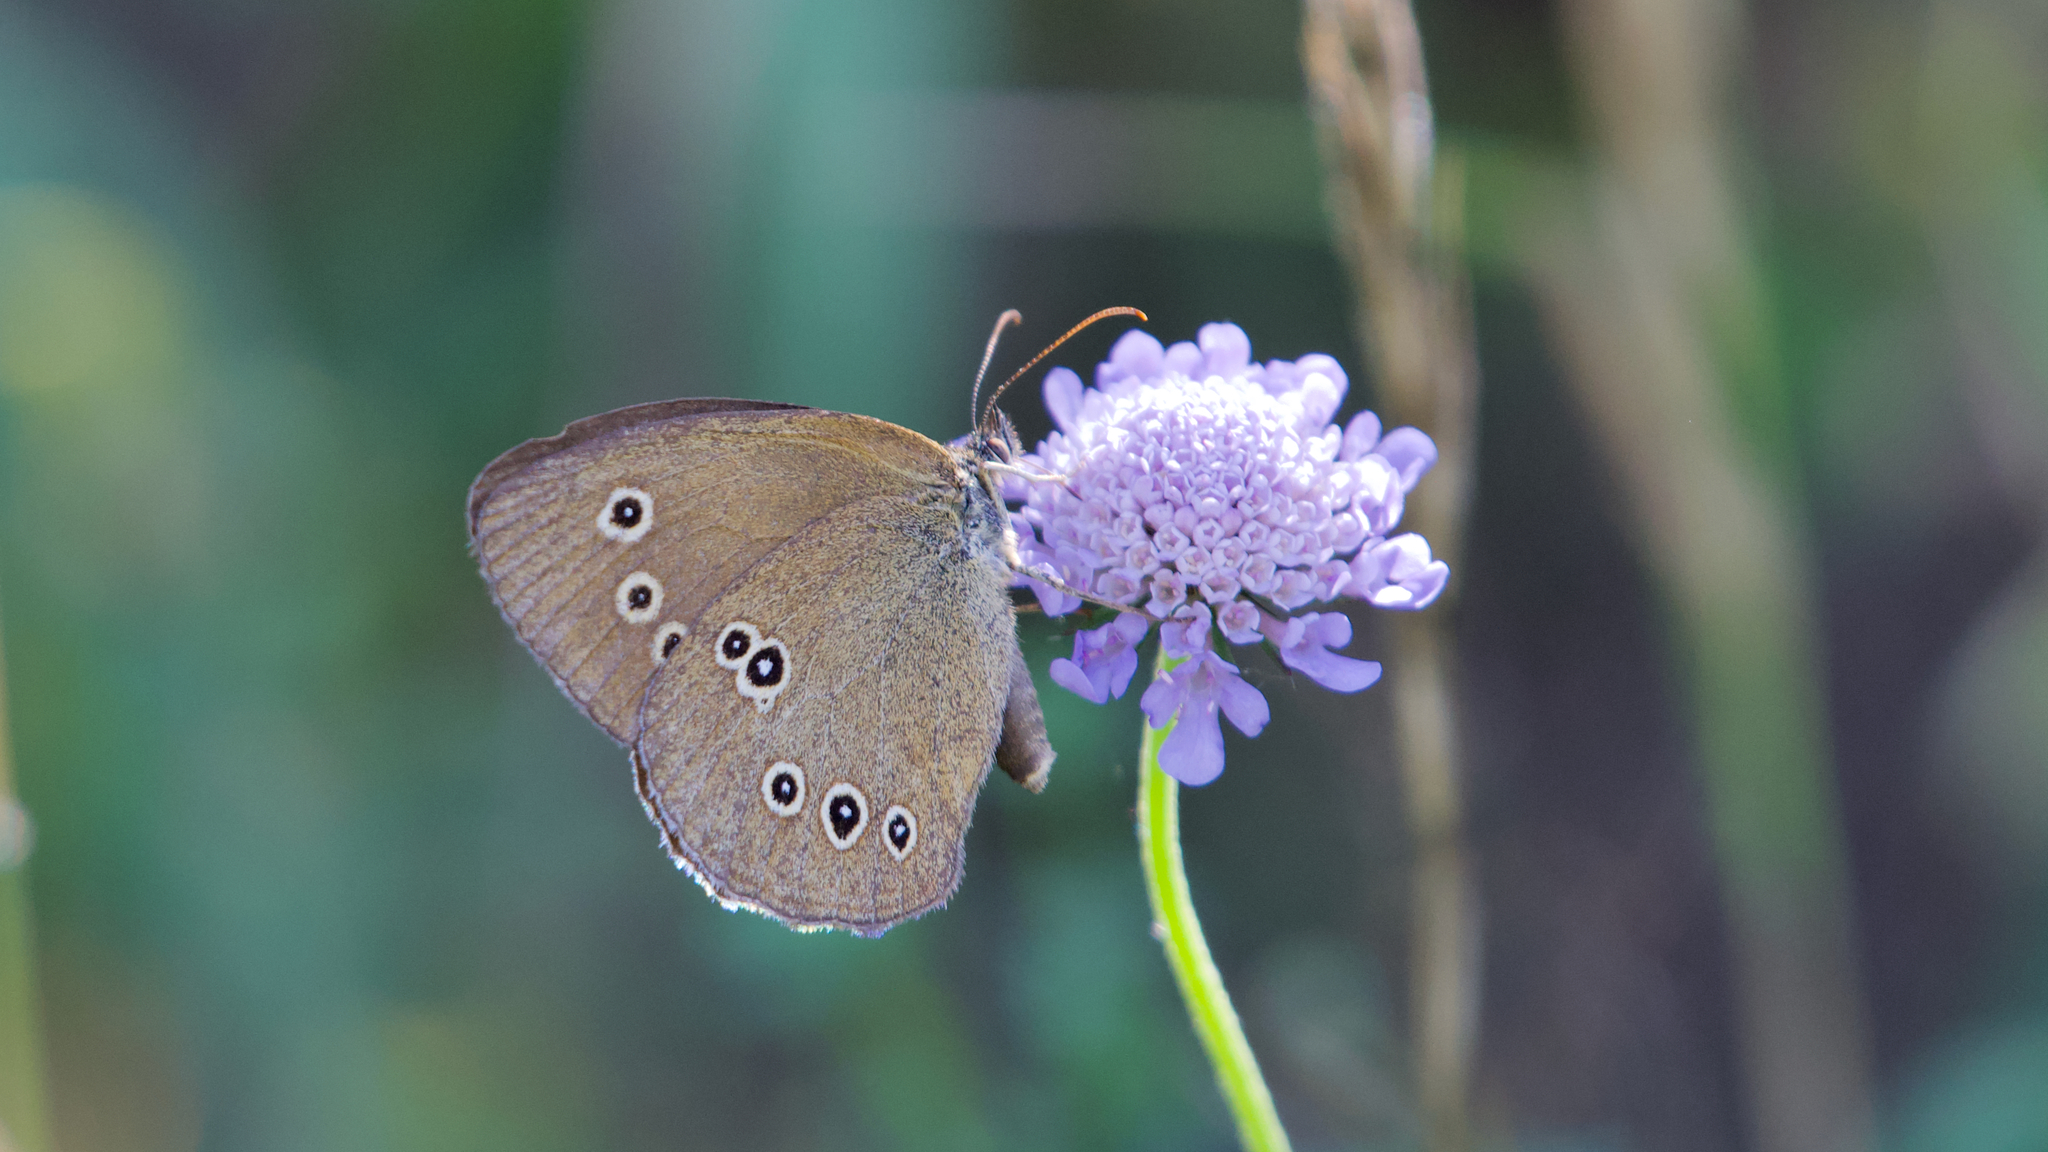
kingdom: Animalia
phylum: Arthropoda
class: Insecta
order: Lepidoptera
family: Nymphalidae
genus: Aphantopus
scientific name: Aphantopus hyperantus
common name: Ringlet
